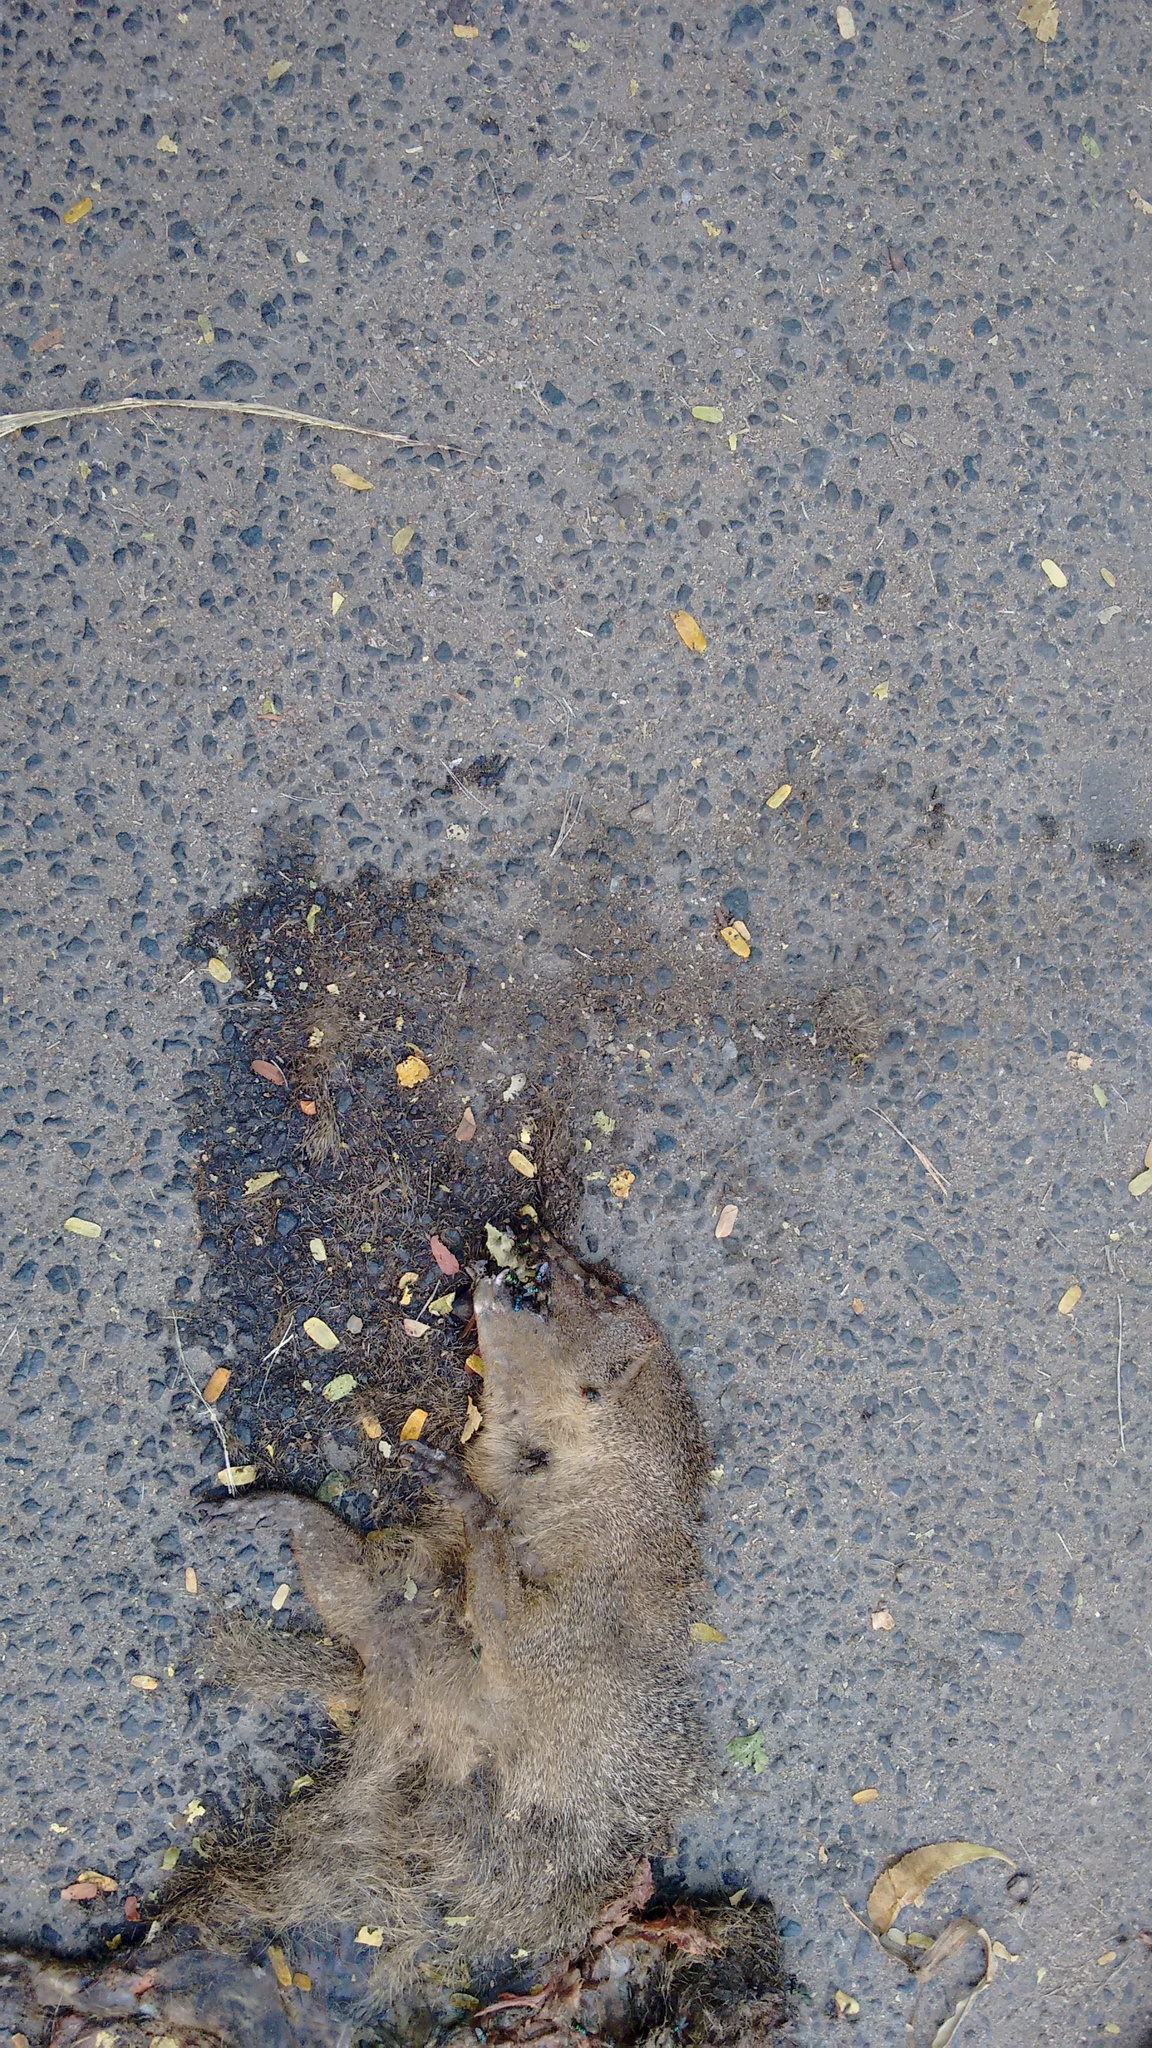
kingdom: Animalia
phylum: Chordata
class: Mammalia
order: Carnivora
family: Herpestidae
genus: Herpestes
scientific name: Herpestes edwardsi
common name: Indian gray mongoose
